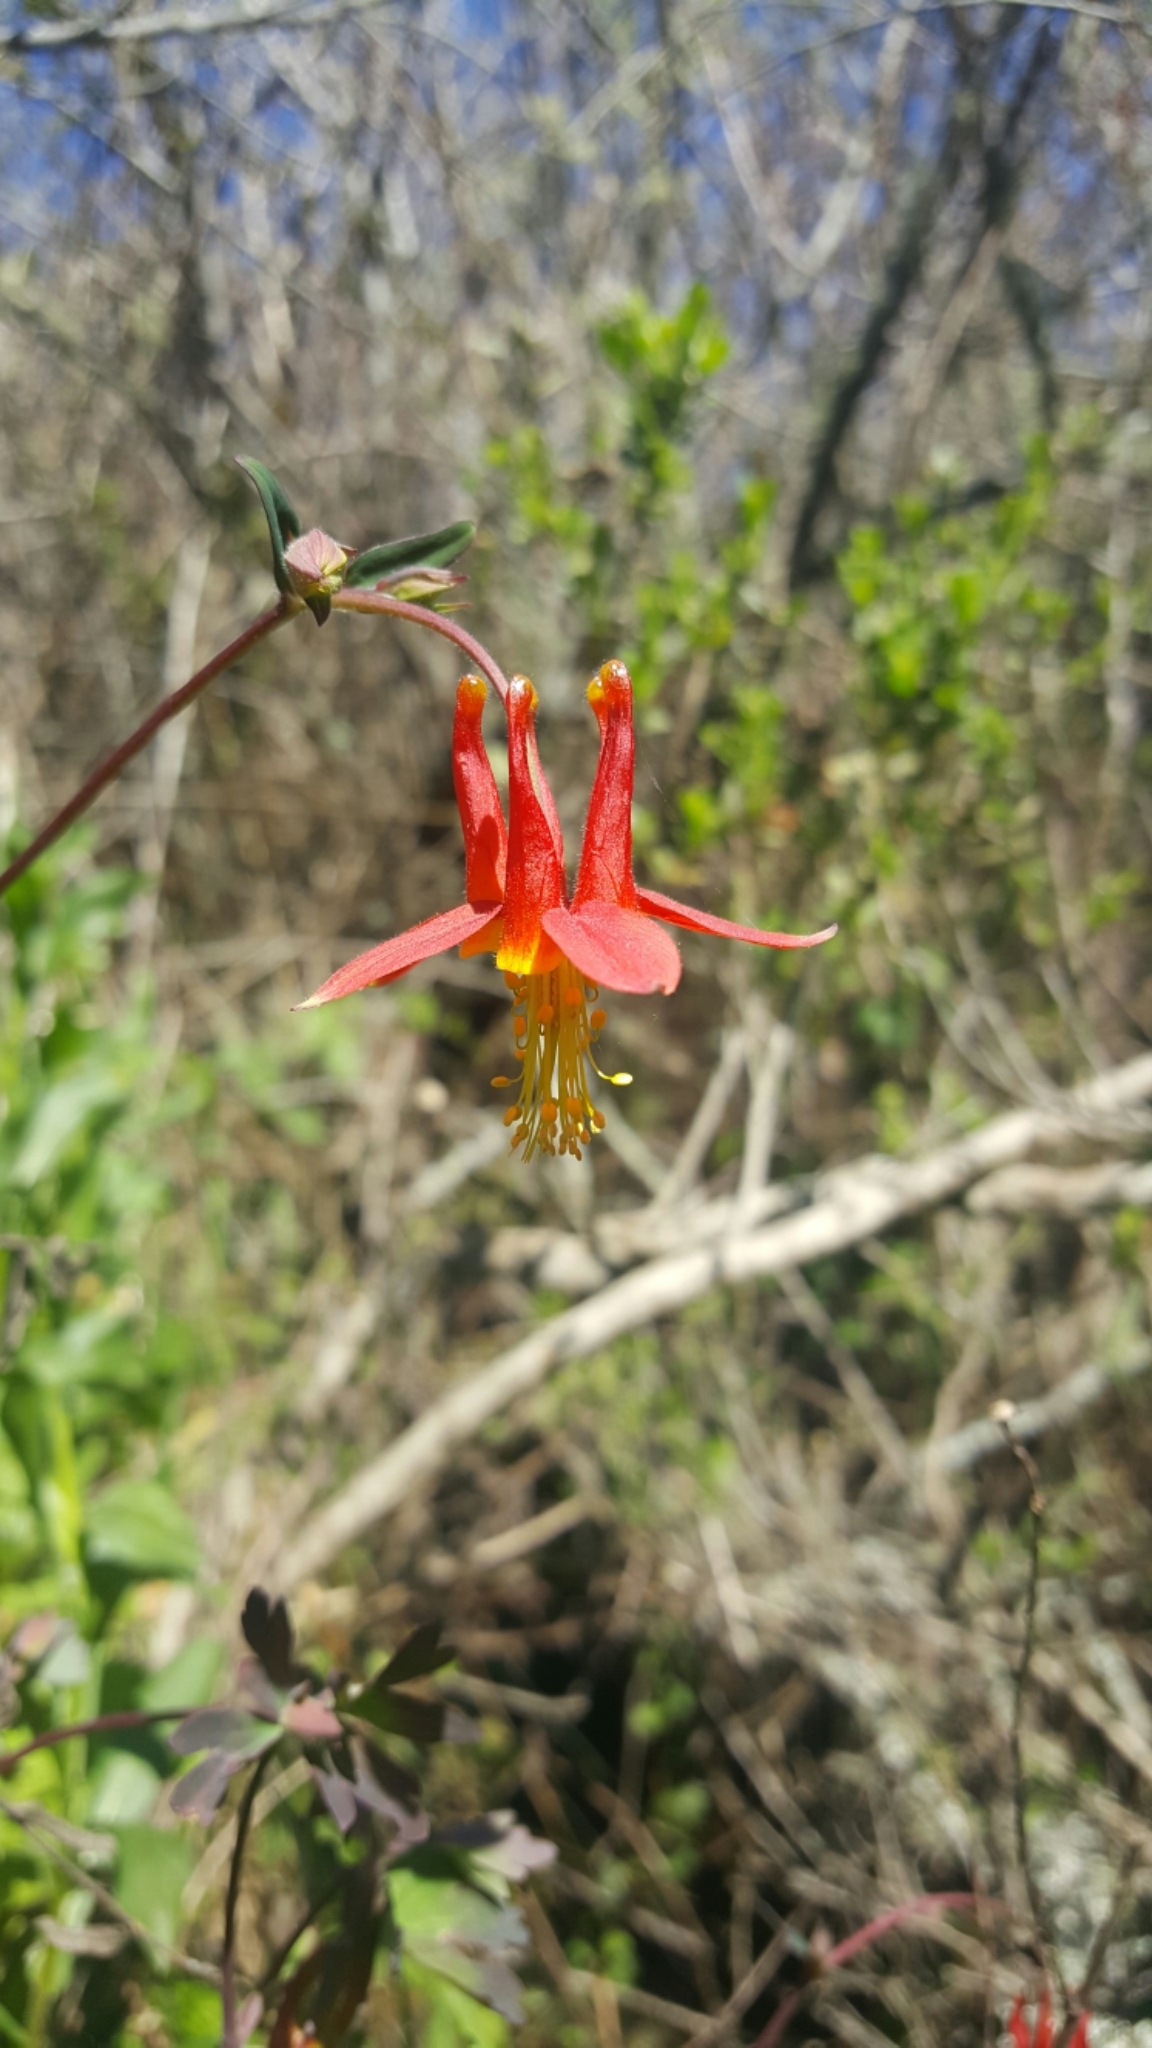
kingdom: Plantae
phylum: Tracheophyta
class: Magnoliopsida
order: Ranunculales
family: Ranunculaceae
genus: Aquilegia
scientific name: Aquilegia formosa
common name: Sitka columbine
